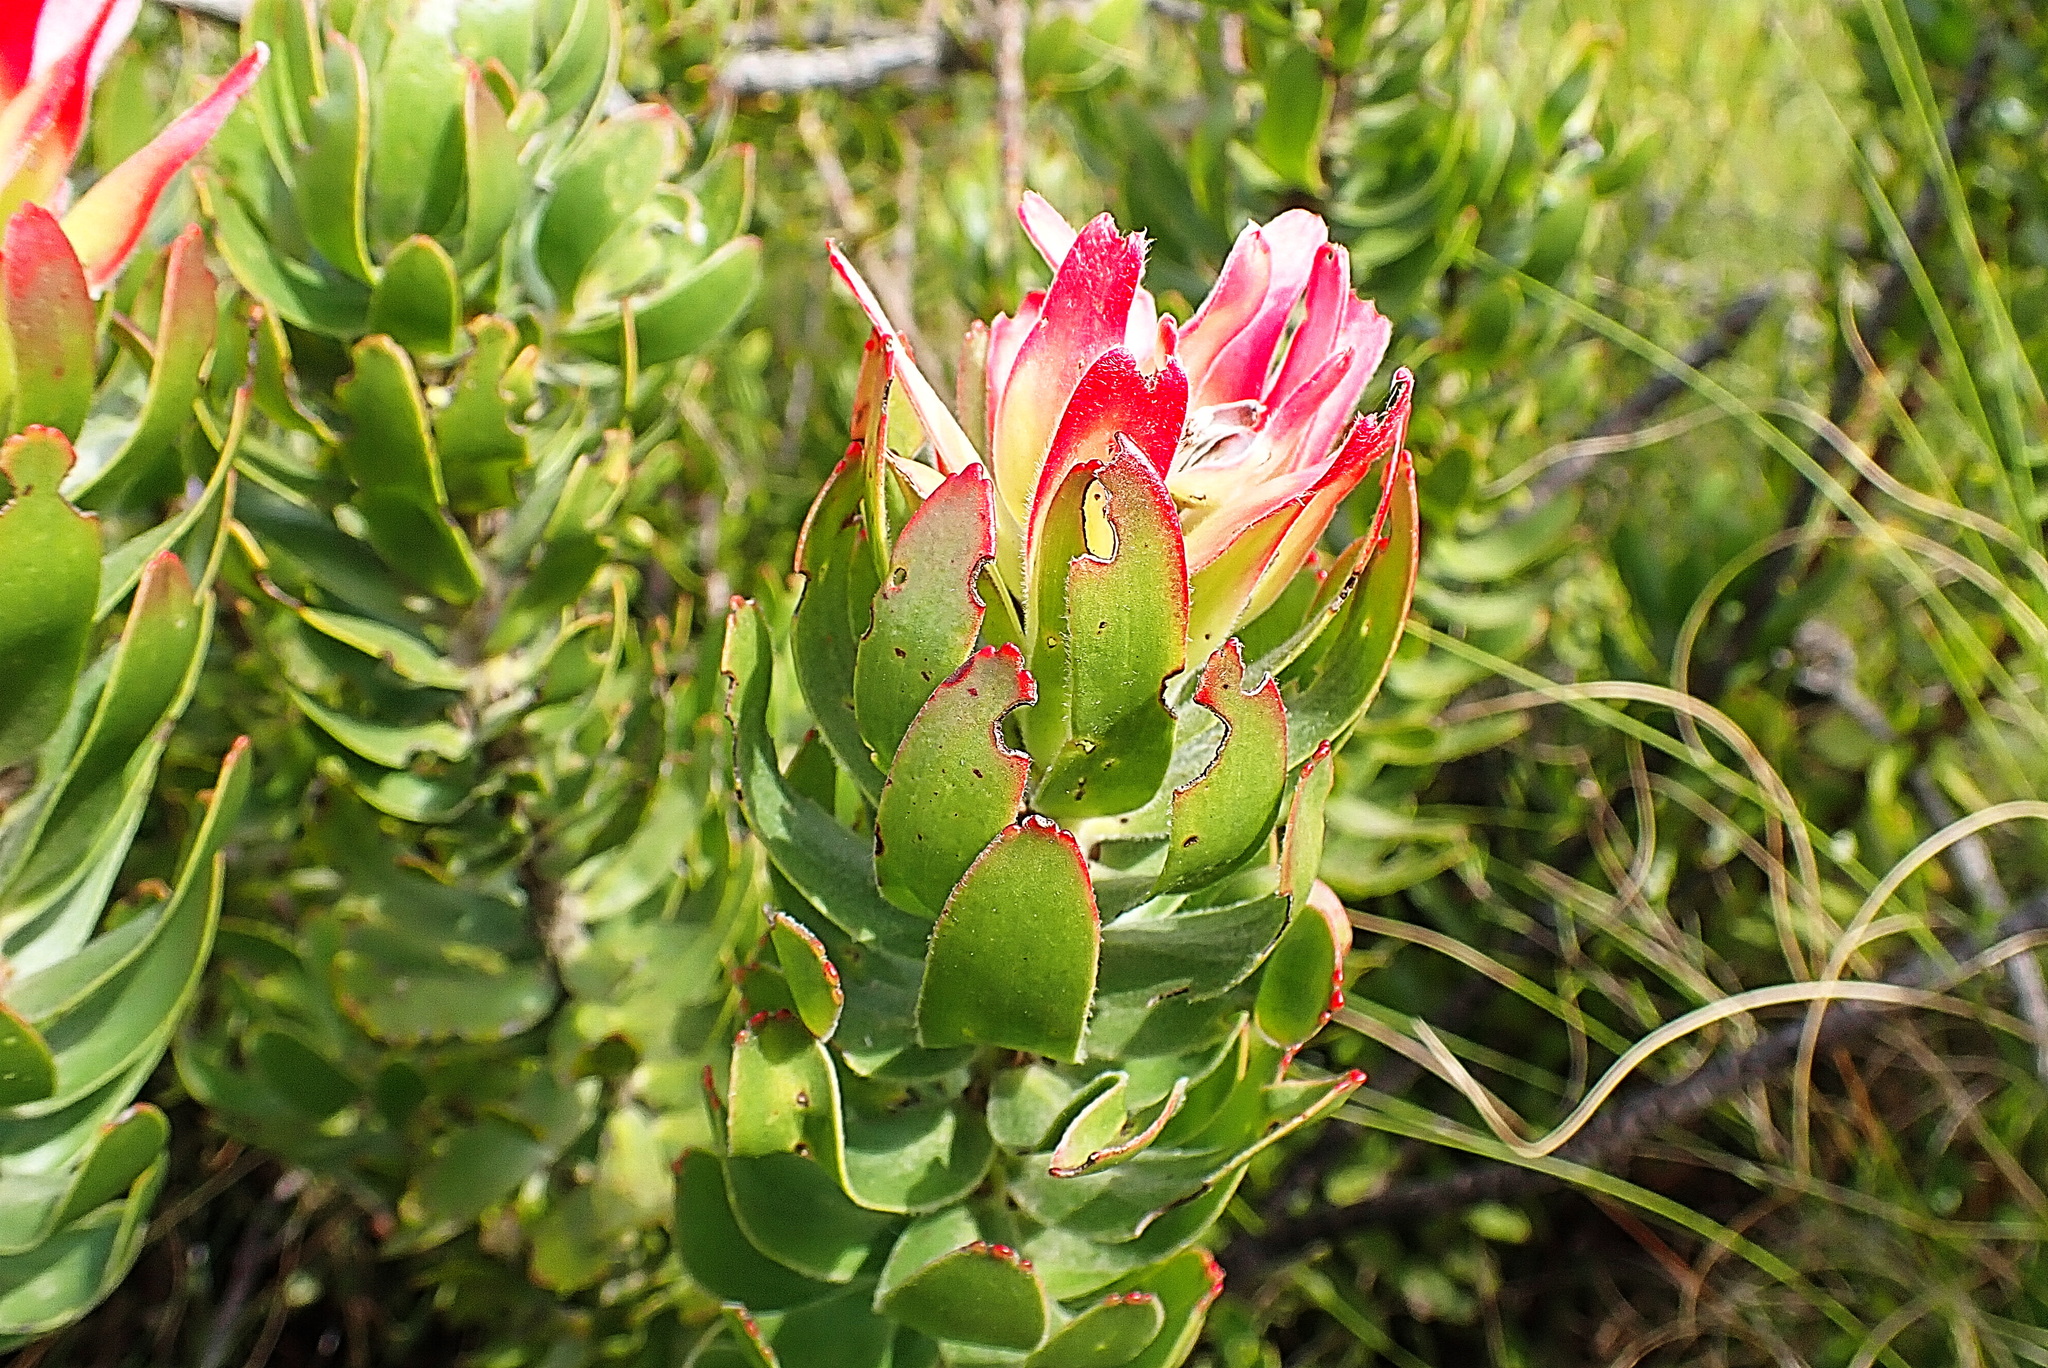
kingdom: Plantae
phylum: Tracheophyta
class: Magnoliopsida
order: Proteales
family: Proteaceae
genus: Mimetes
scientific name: Mimetes cucullatus
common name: Common pagoda
